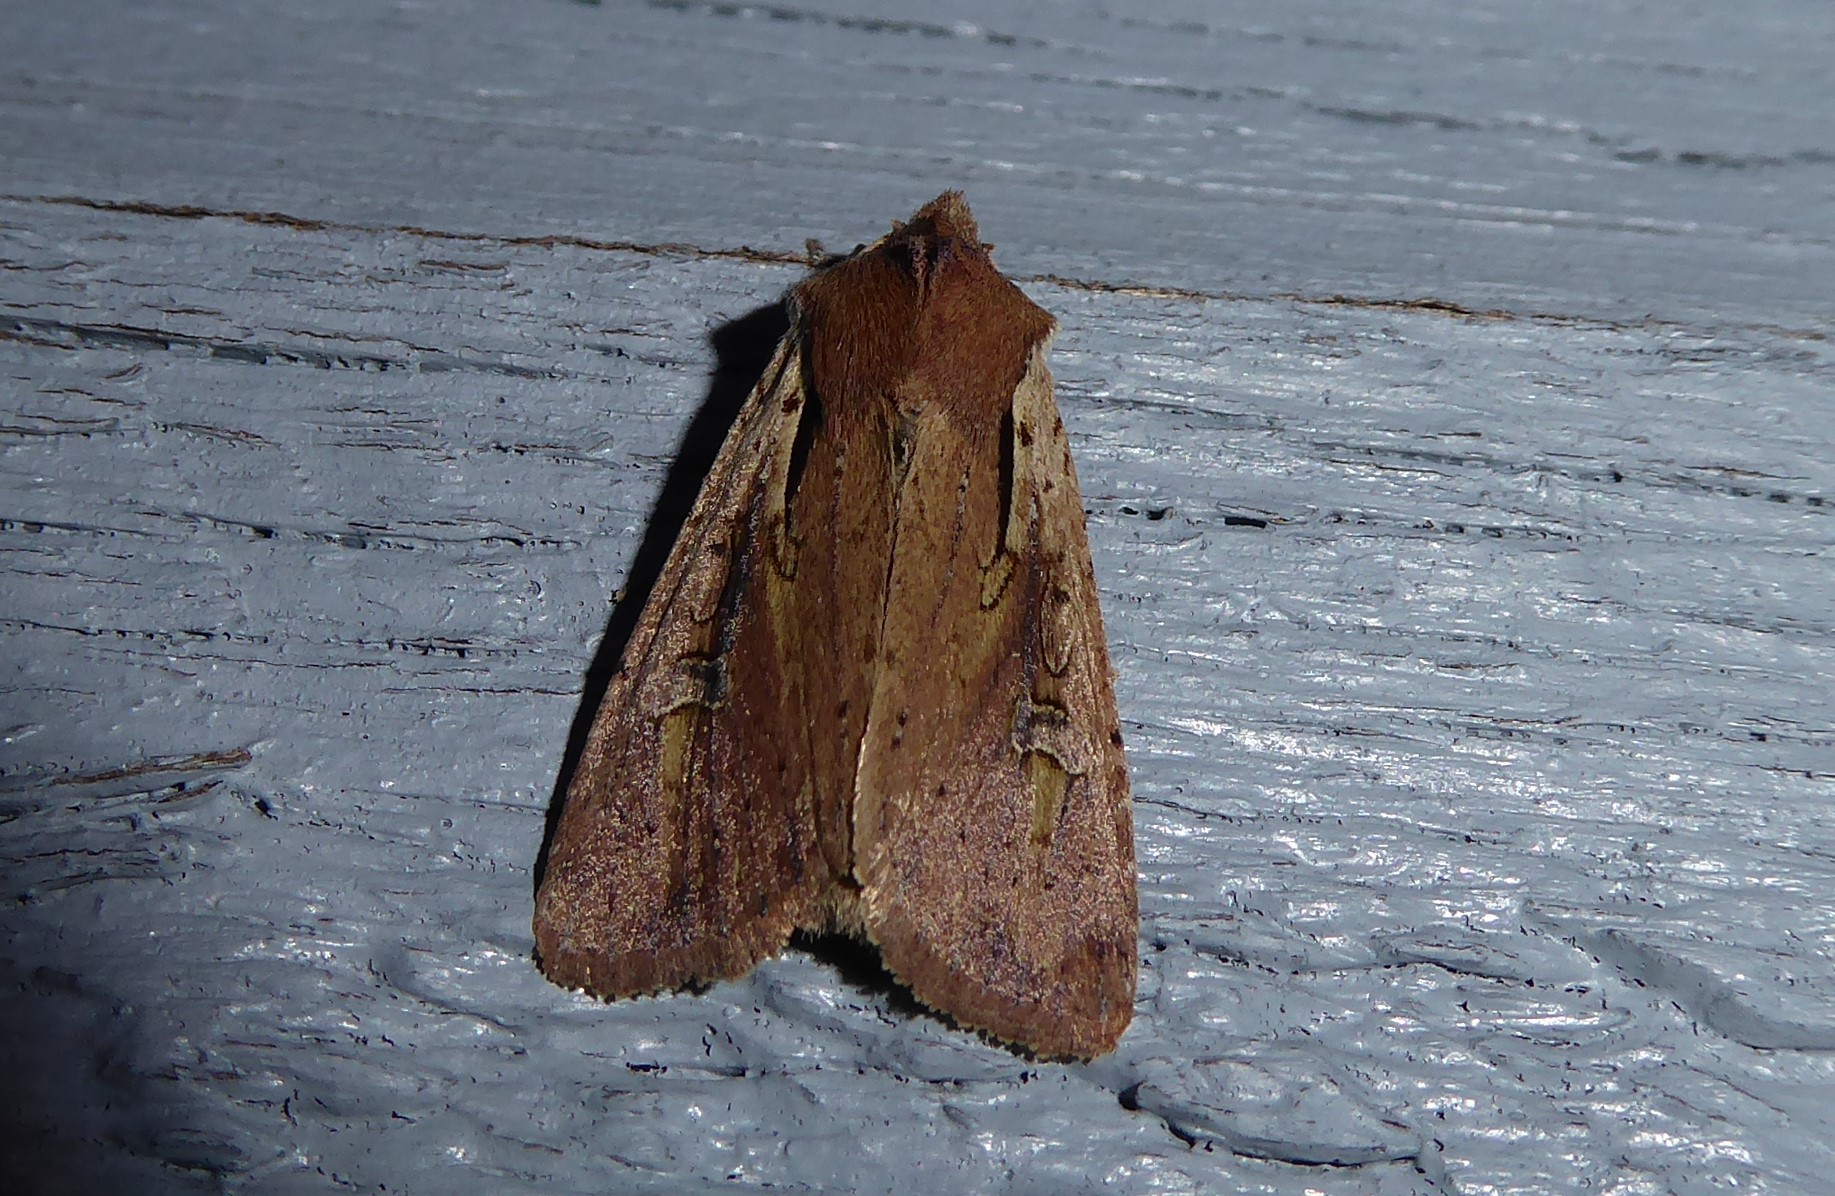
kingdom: Animalia
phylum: Arthropoda
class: Insecta
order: Lepidoptera
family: Noctuidae
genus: Ichneutica
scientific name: Ichneutica atristriga
